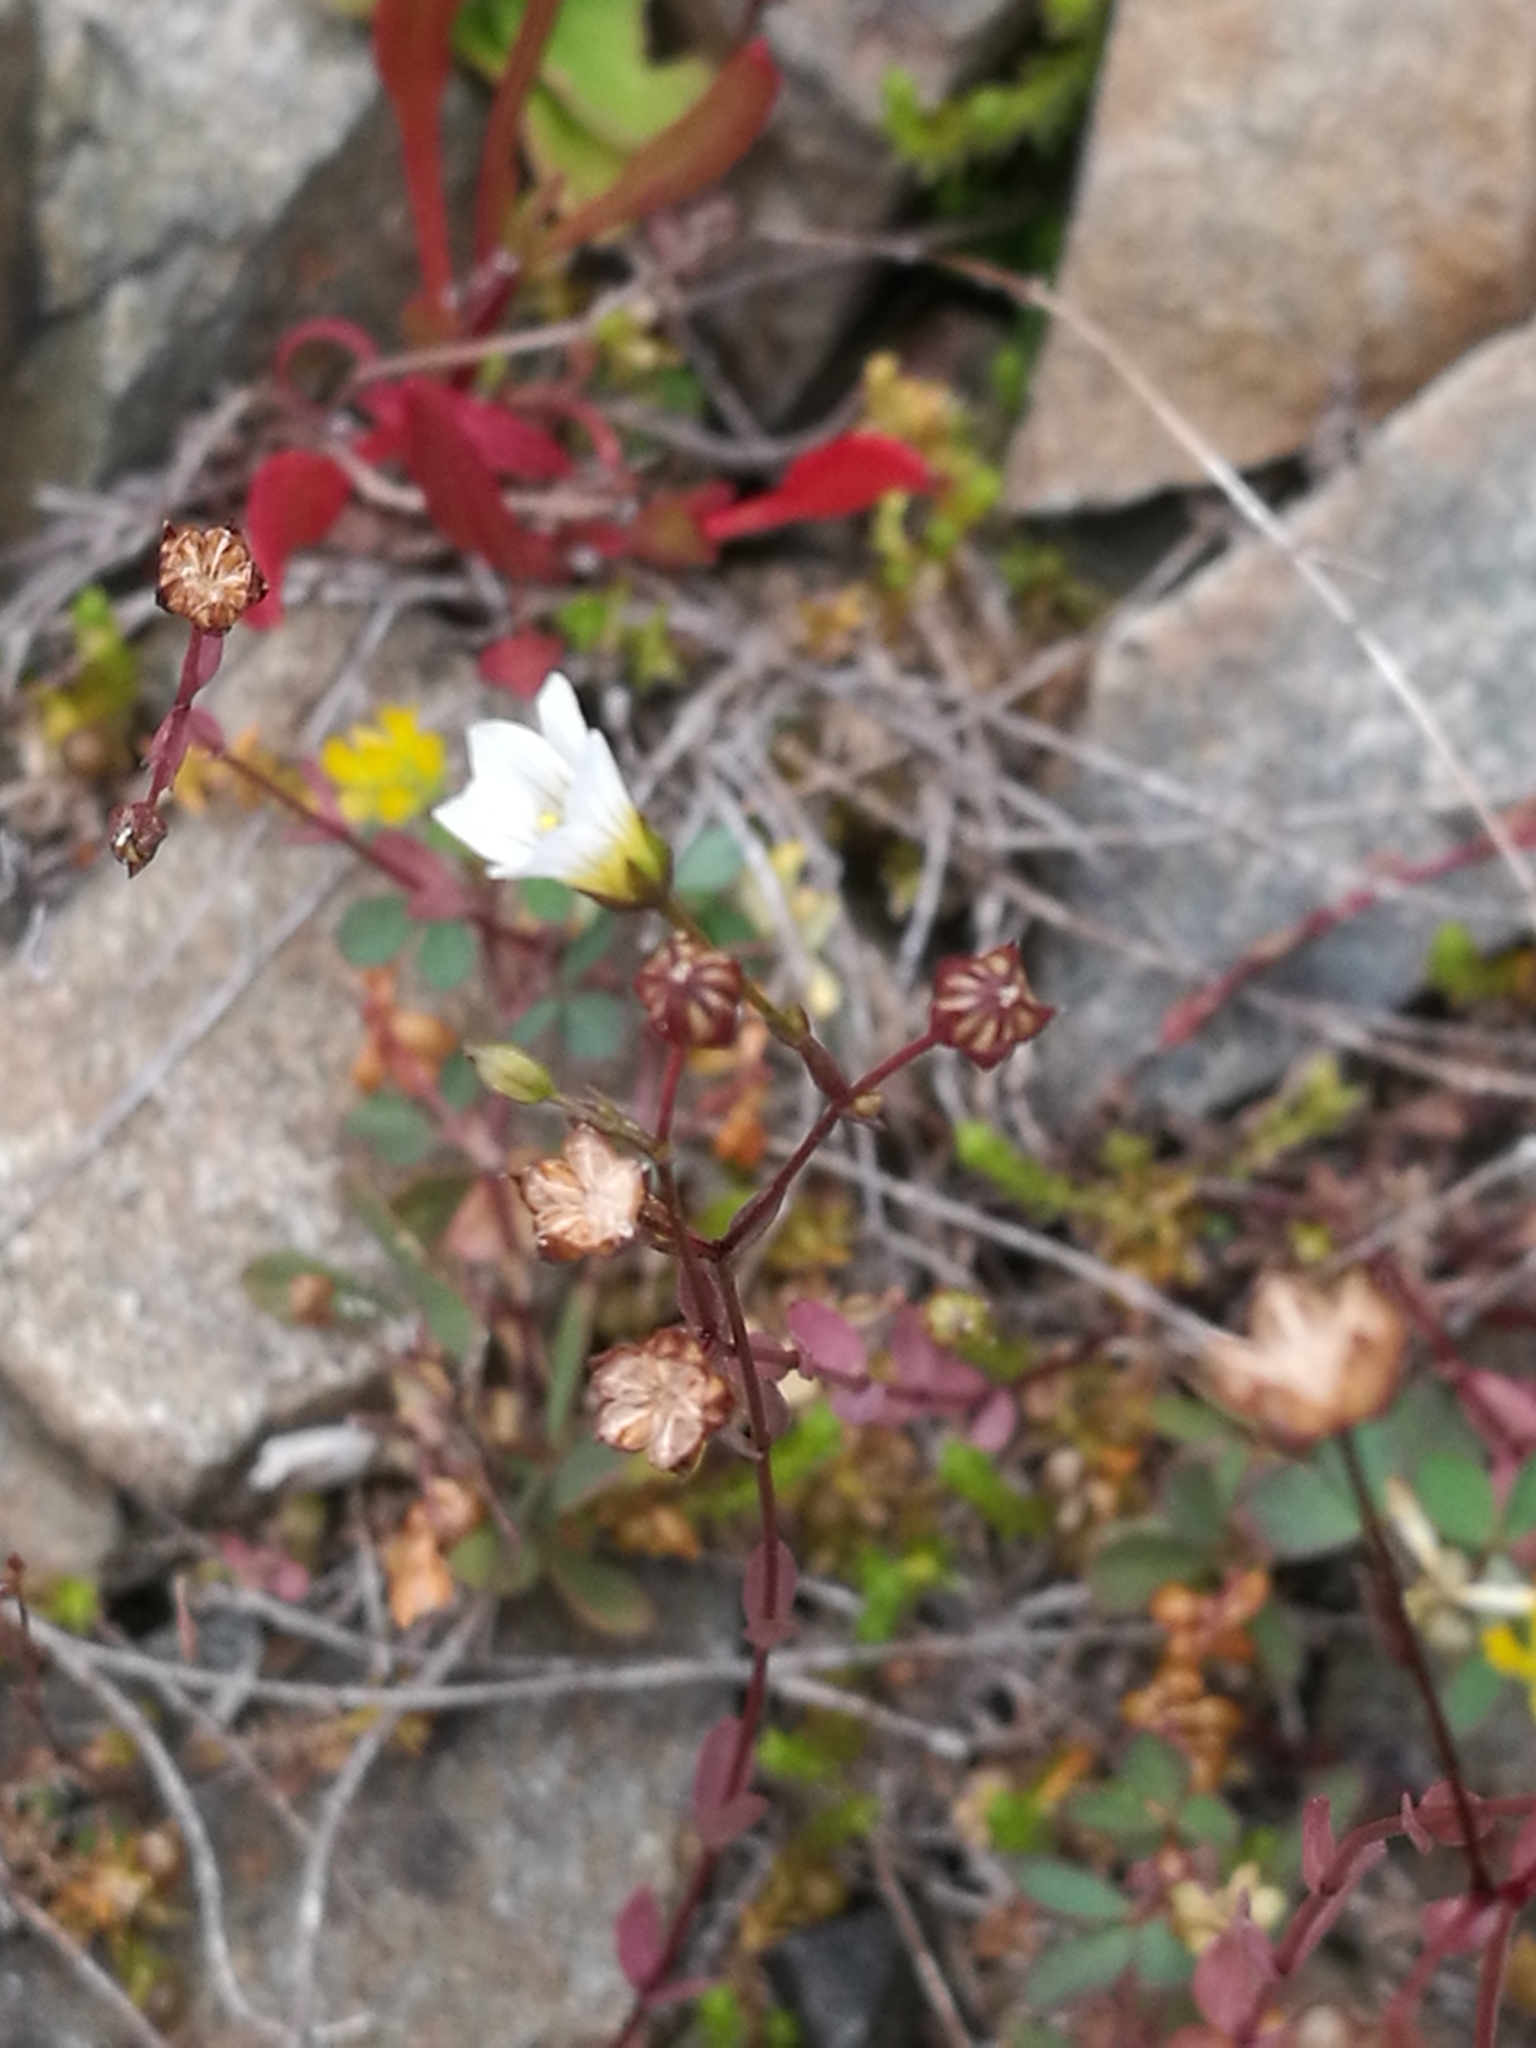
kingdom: Plantae
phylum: Tracheophyta
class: Magnoliopsida
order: Malpighiales
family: Linaceae
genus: Linum
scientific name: Linum catharticum
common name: Fairy flax
